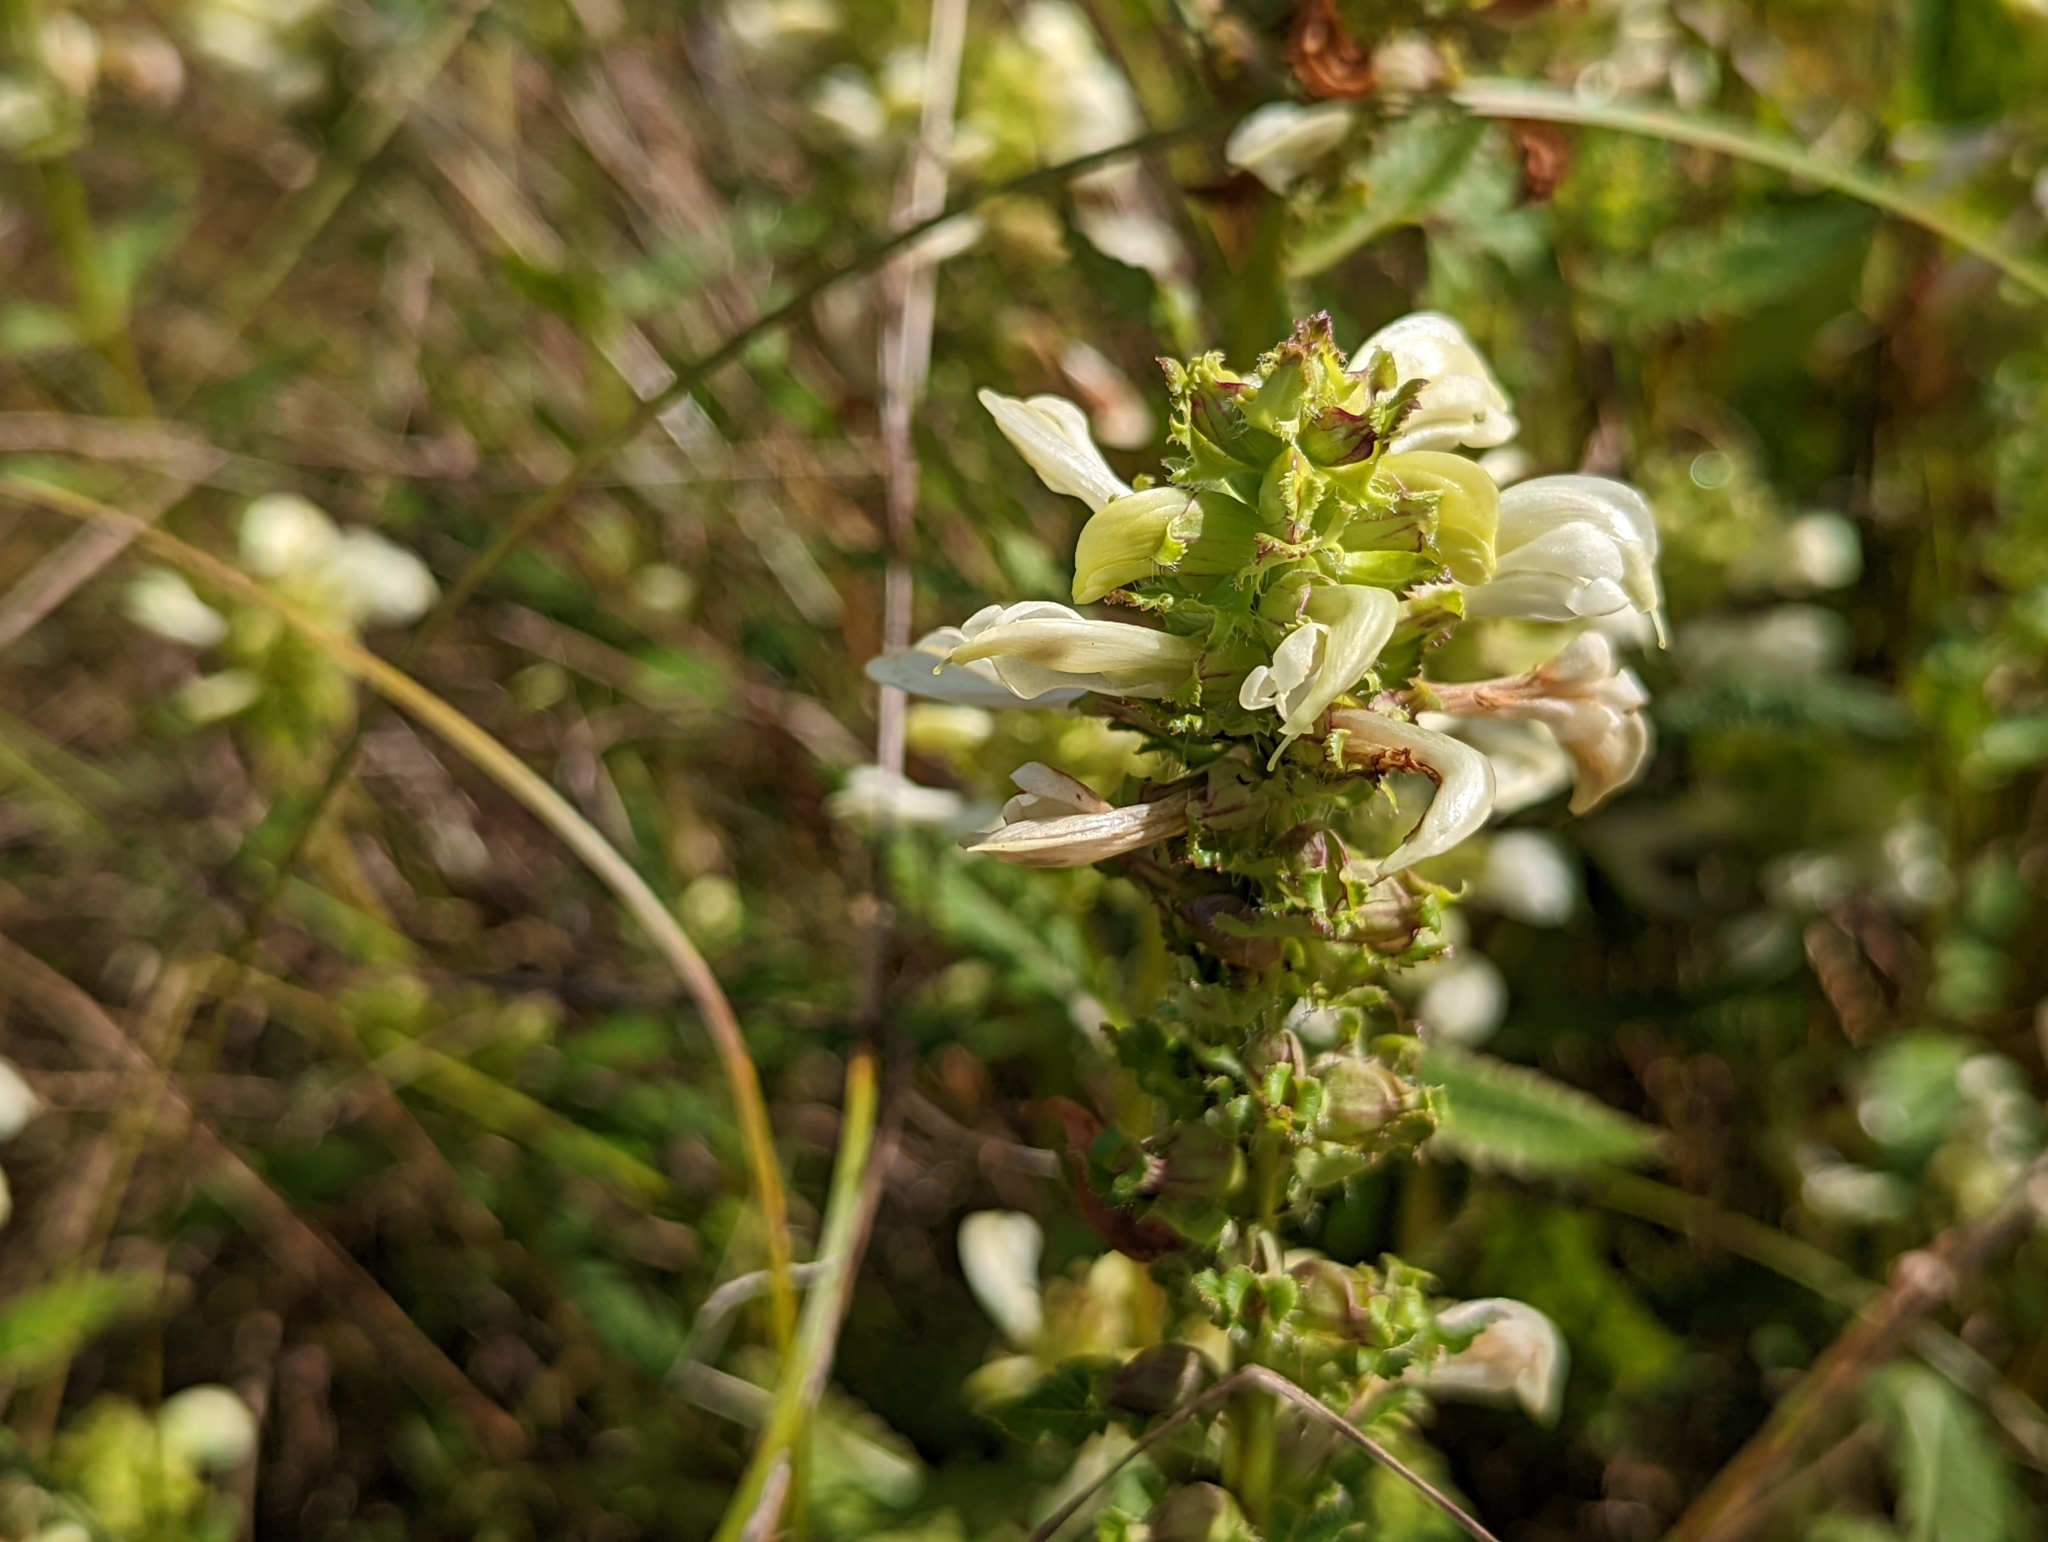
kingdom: Plantae
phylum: Tracheophyta
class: Magnoliopsida
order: Lamiales
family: Orobanchaceae
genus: Pedicularis
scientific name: Pedicularis lanceolata
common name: Swamp lousewort
